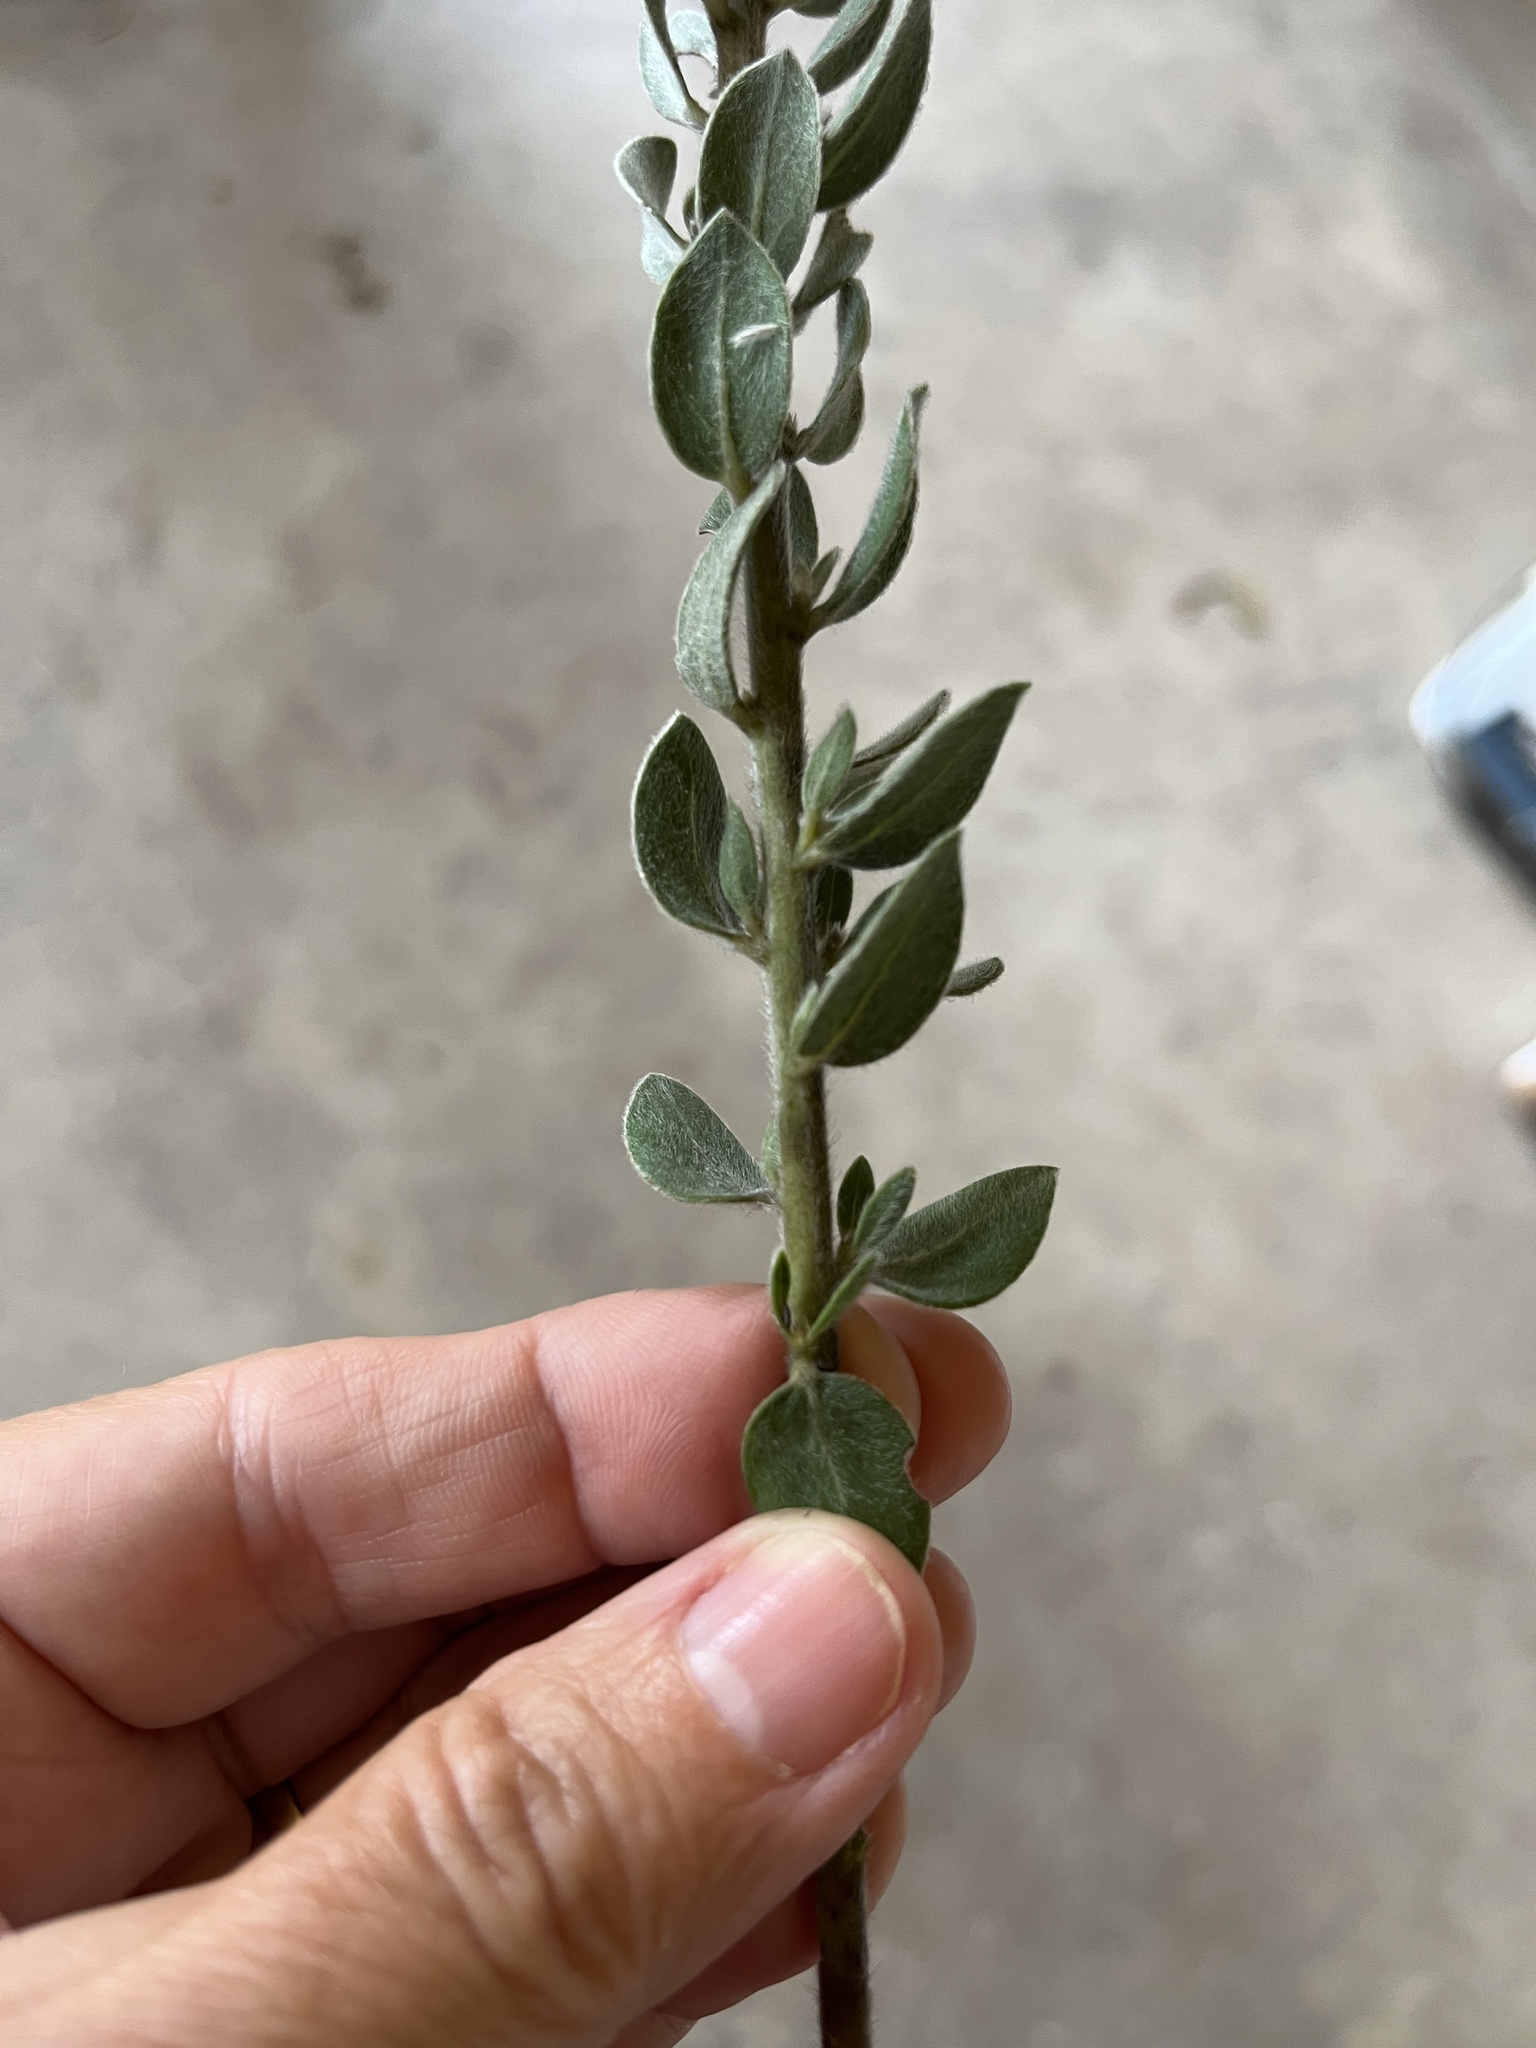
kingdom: Plantae
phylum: Tracheophyta
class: Magnoliopsida
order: Fabales
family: Fabaceae
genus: Xiphotheca
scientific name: Xiphotheca reflexa
